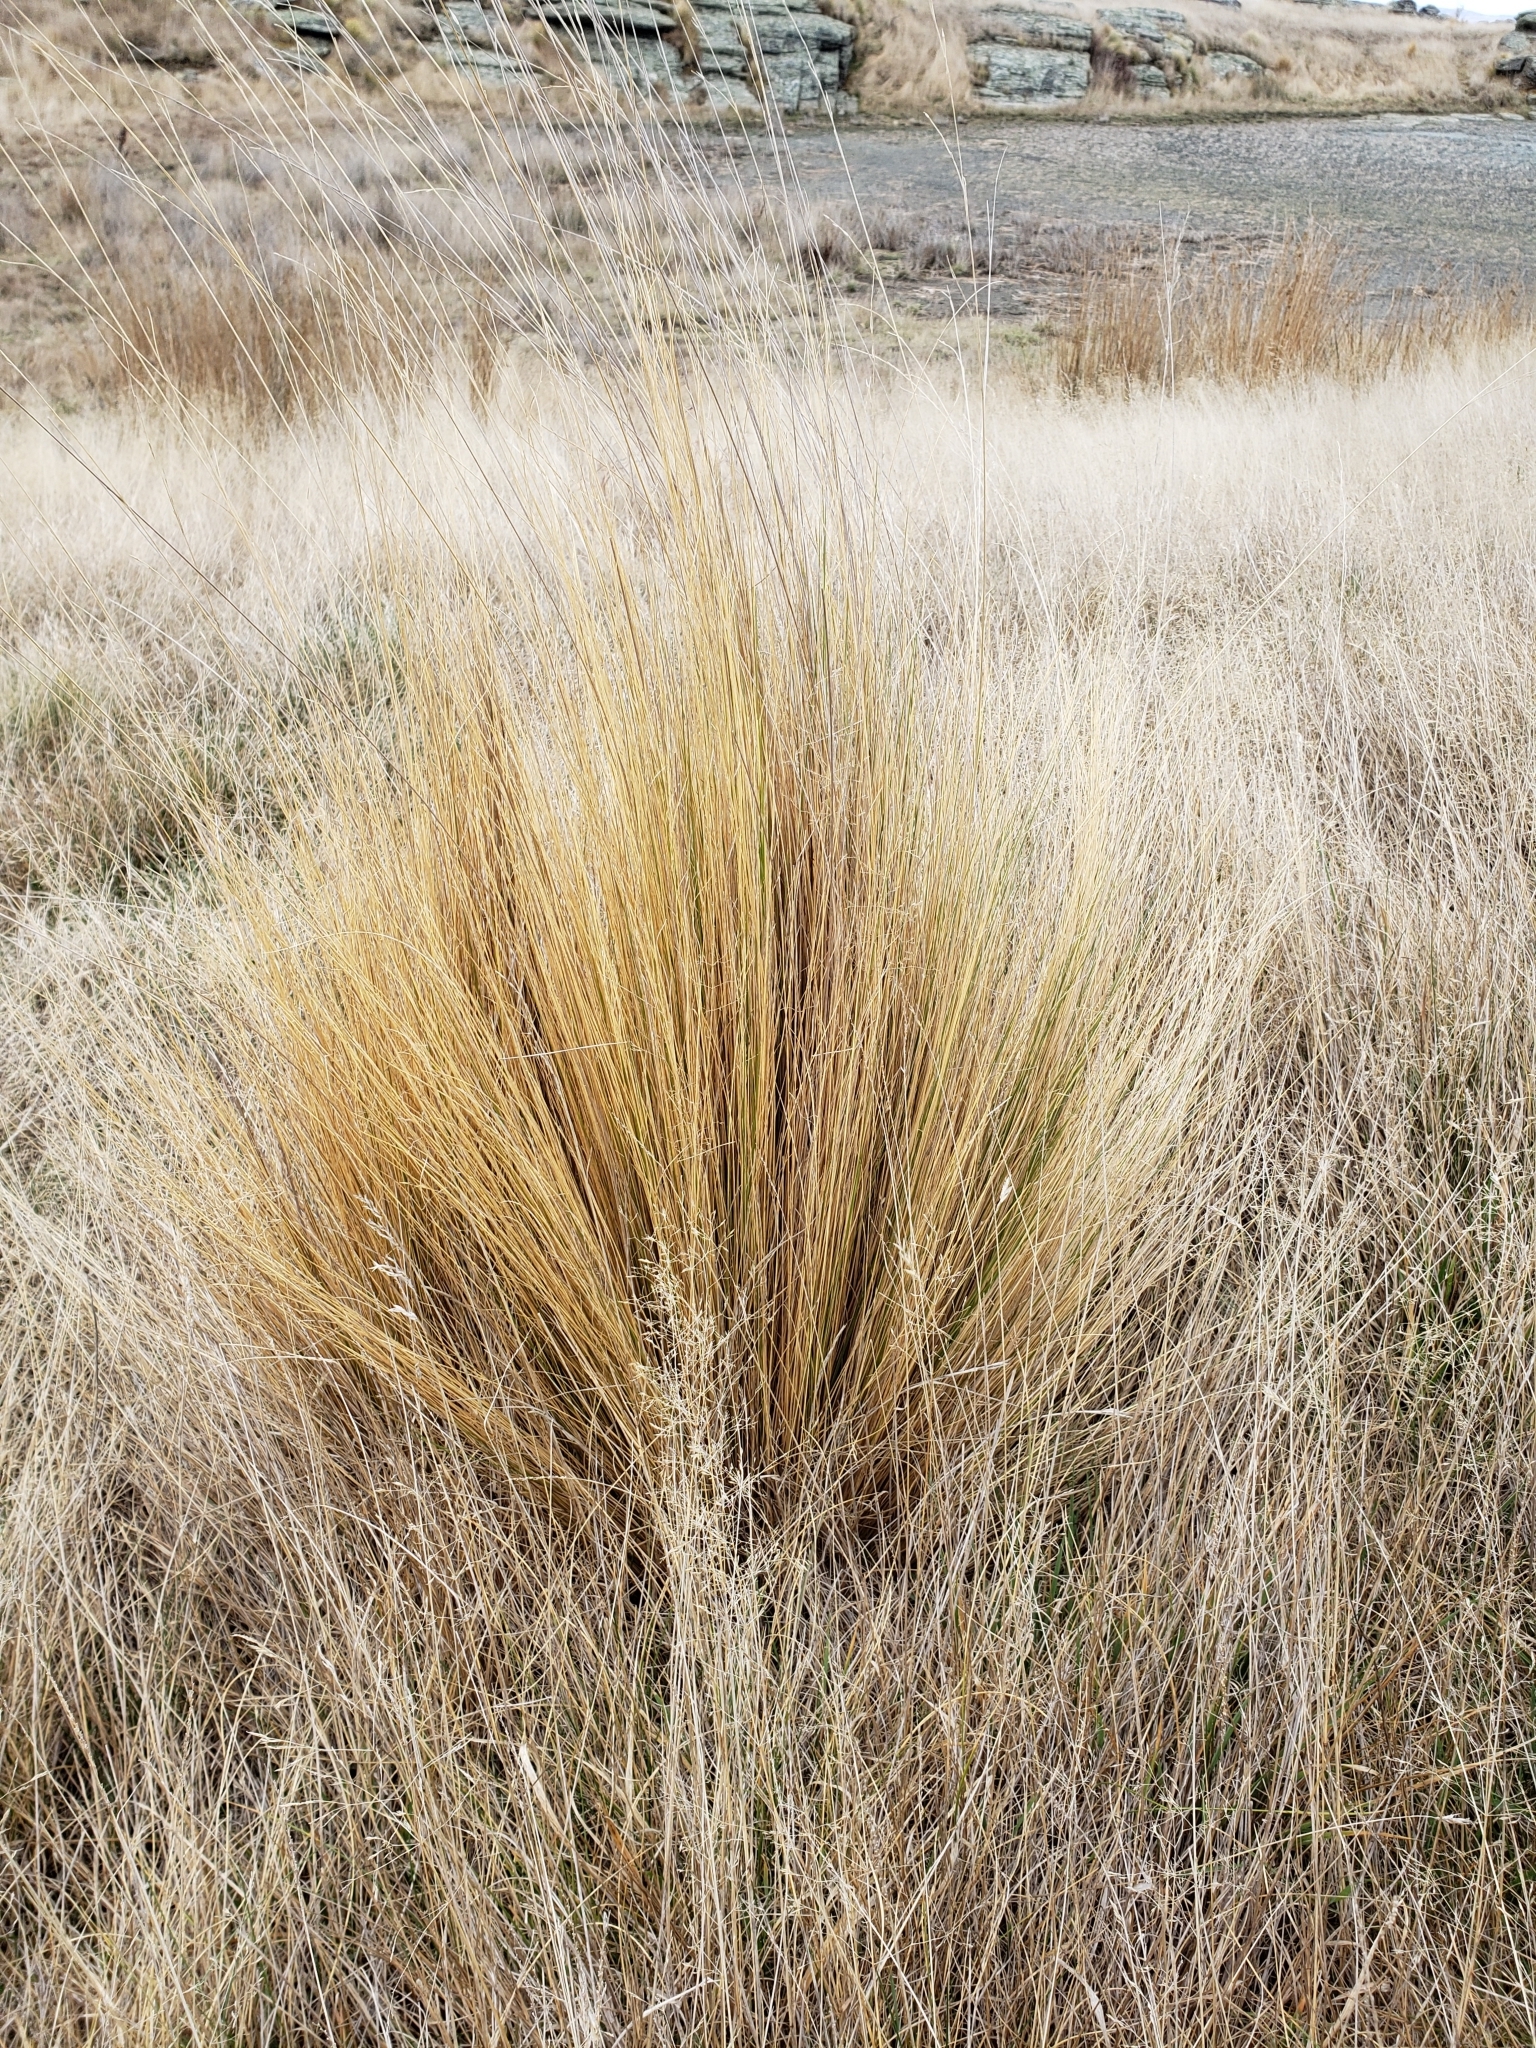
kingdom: Plantae
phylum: Tracheophyta
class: Liliopsida
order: Poales
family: Poaceae
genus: Festuca
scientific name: Festuca novae-zelandiae
